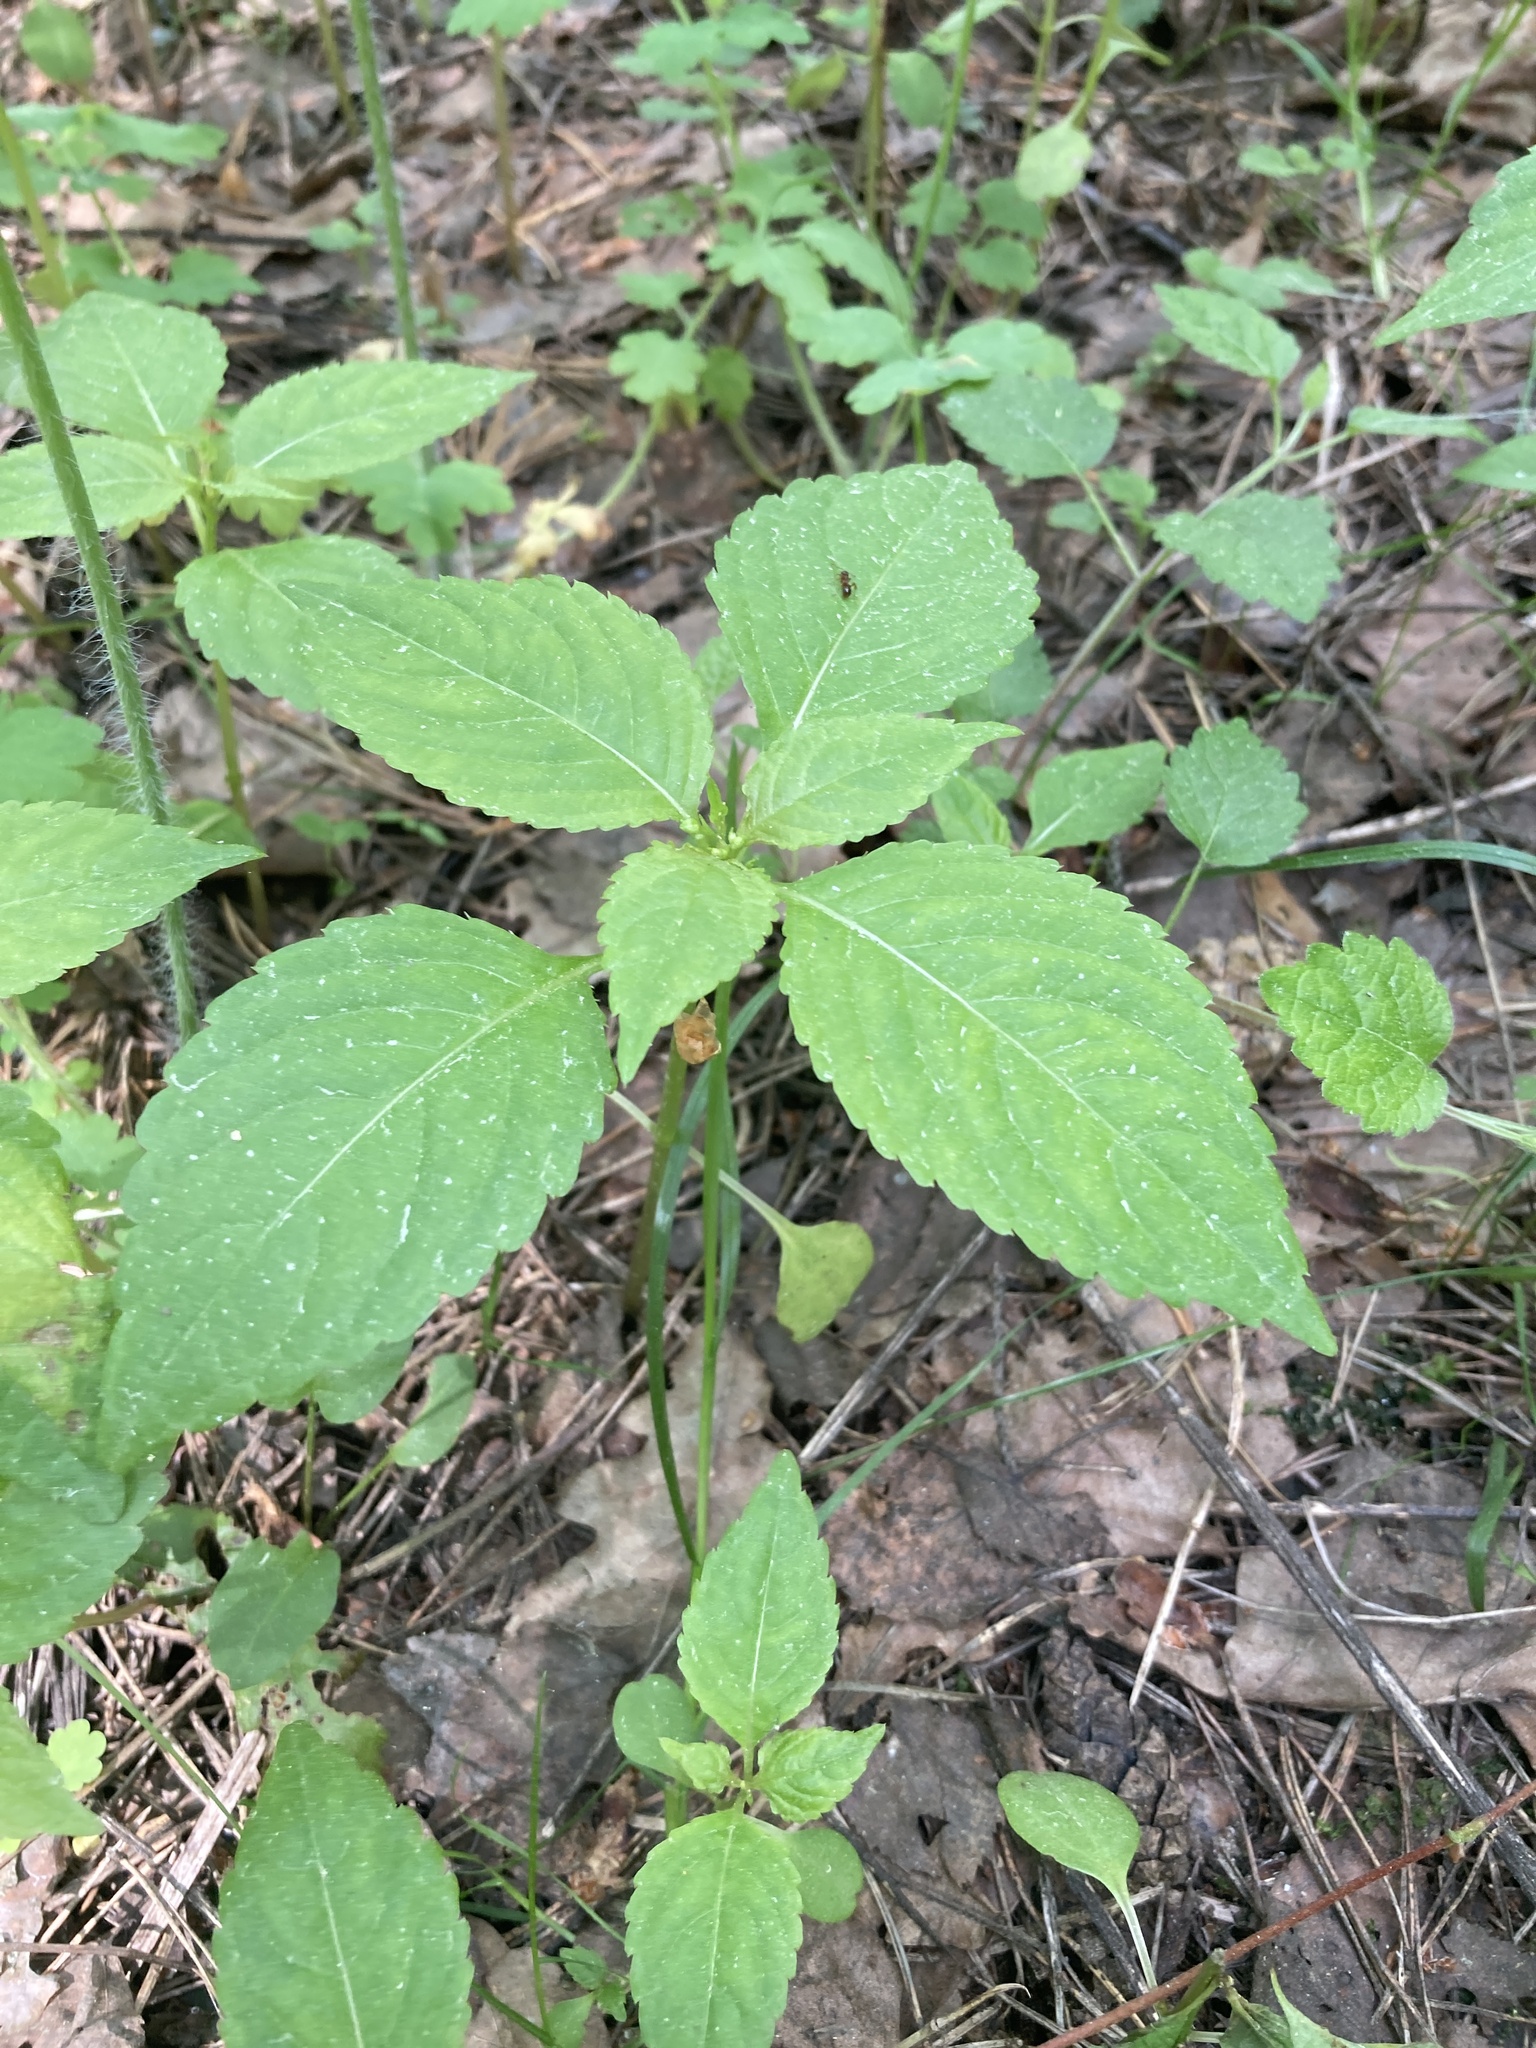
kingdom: Plantae
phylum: Tracheophyta
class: Magnoliopsida
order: Ericales
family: Balsaminaceae
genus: Impatiens
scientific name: Impatiens parviflora
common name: Small balsam
